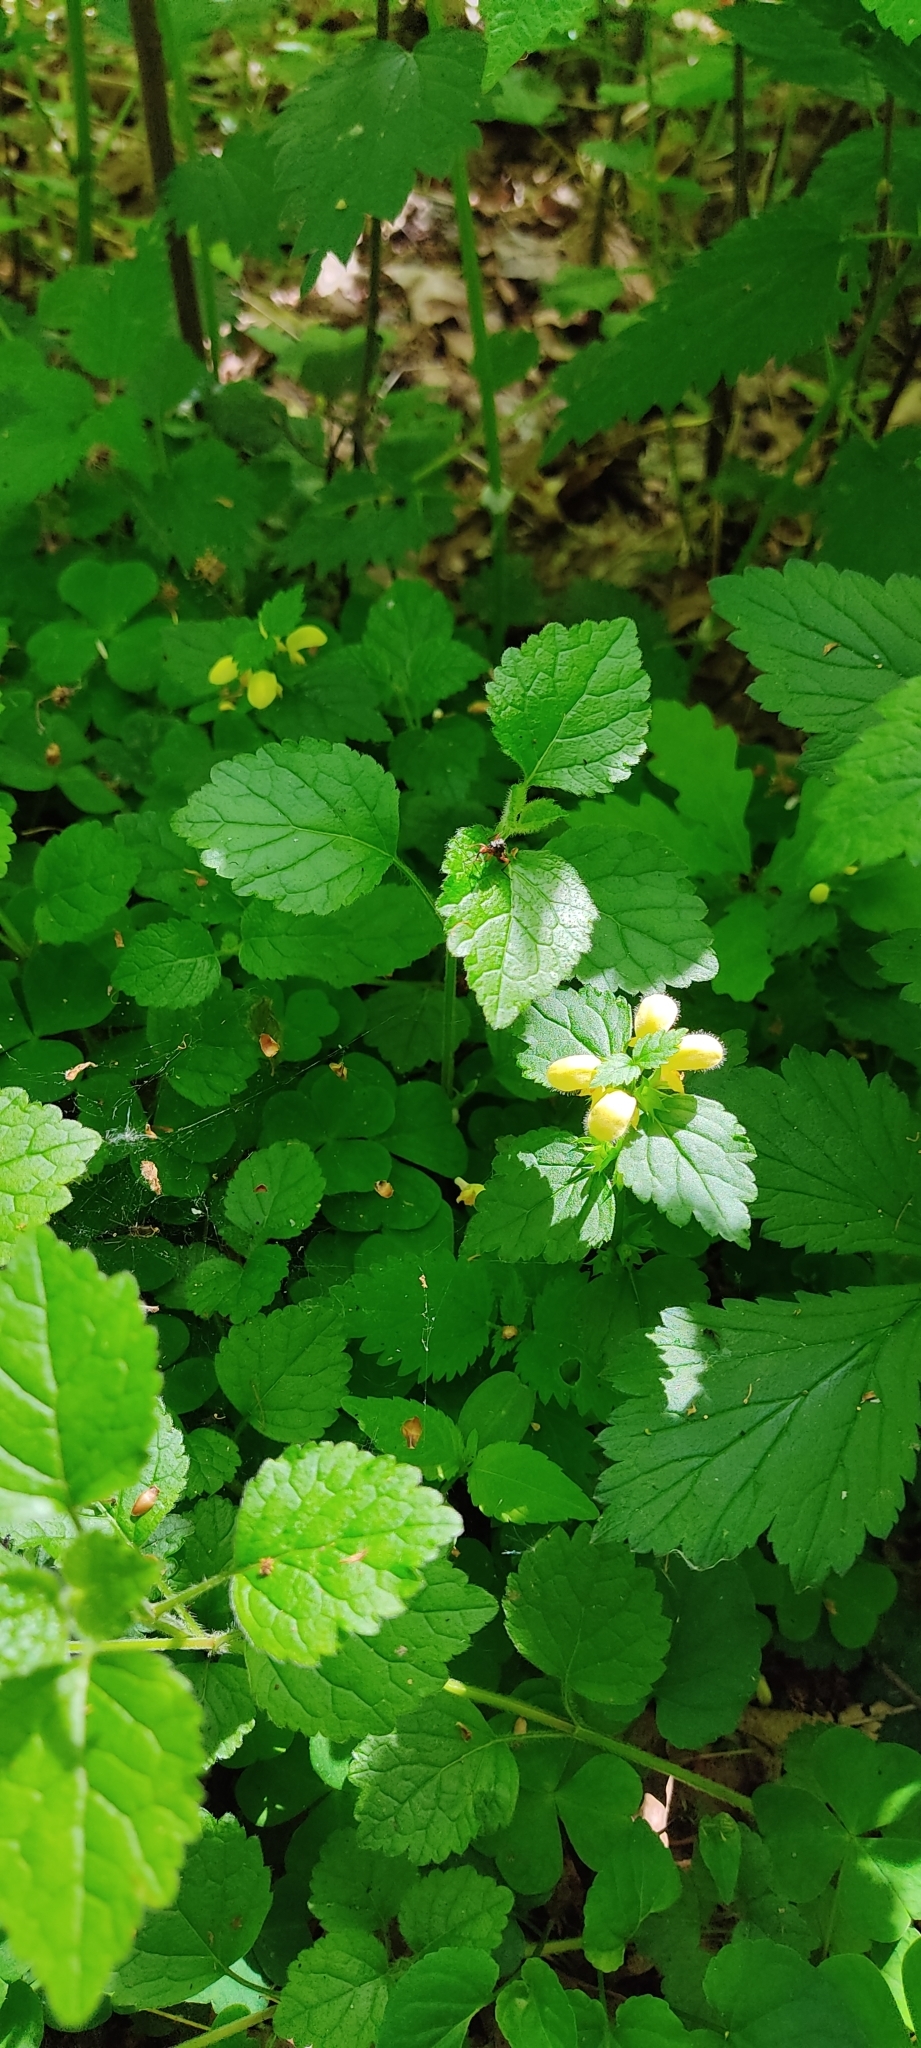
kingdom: Plantae
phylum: Tracheophyta
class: Magnoliopsida
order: Lamiales
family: Lamiaceae
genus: Lamium
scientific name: Lamium galeobdolon
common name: Yellow archangel
